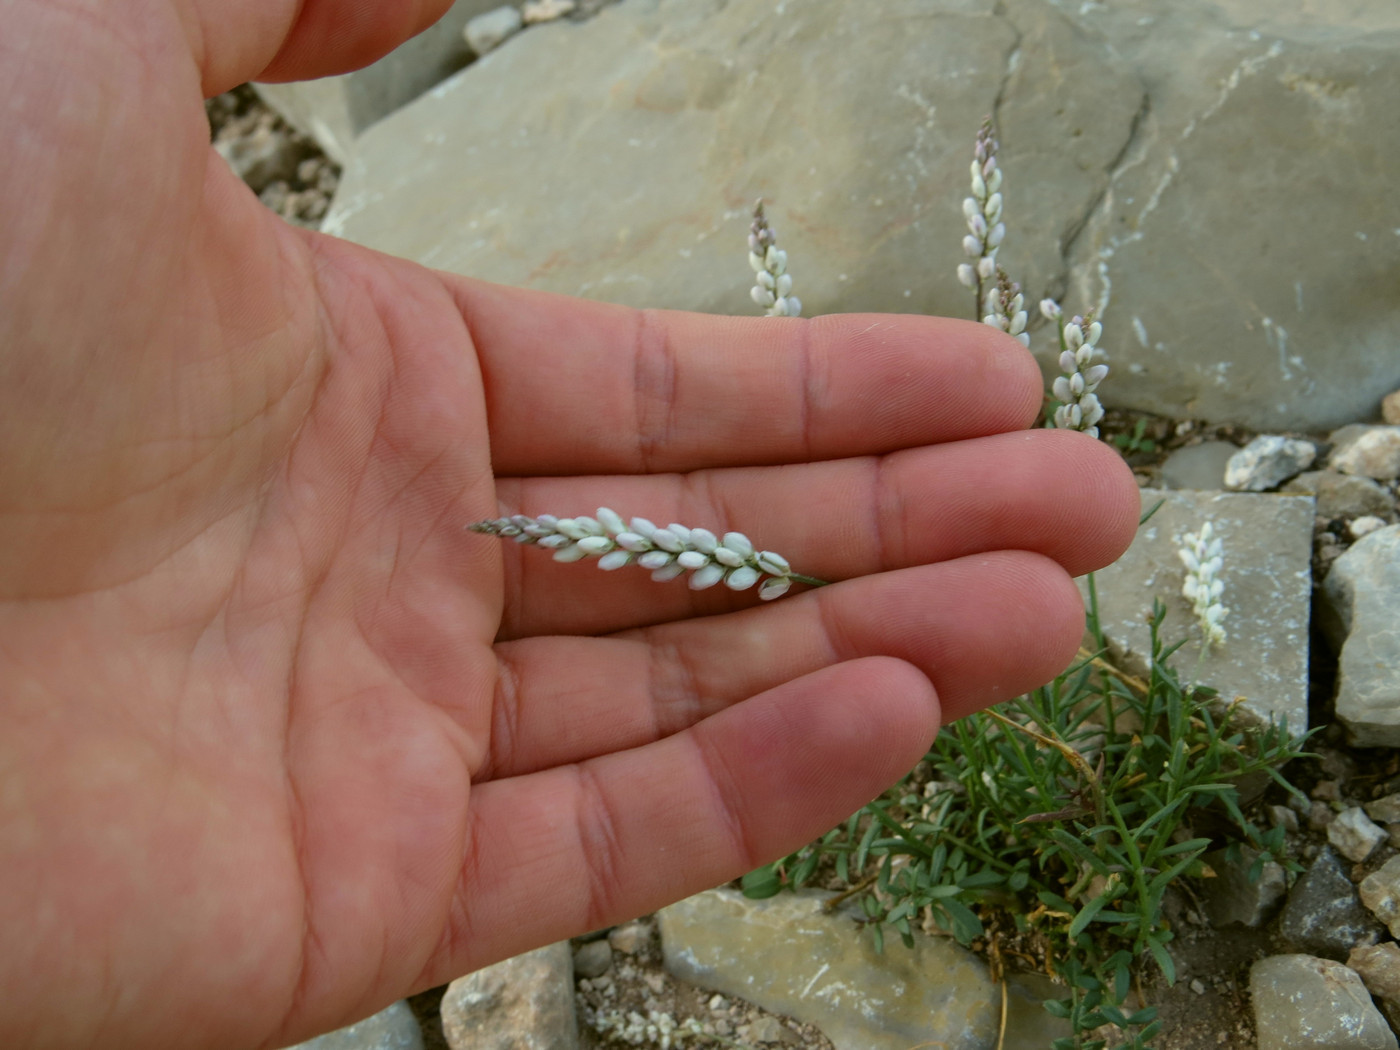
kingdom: Plantae
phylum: Tracheophyta
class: Magnoliopsida
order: Fabales
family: Polygalaceae
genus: Polygala
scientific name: Polygala alba
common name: White milkwort
